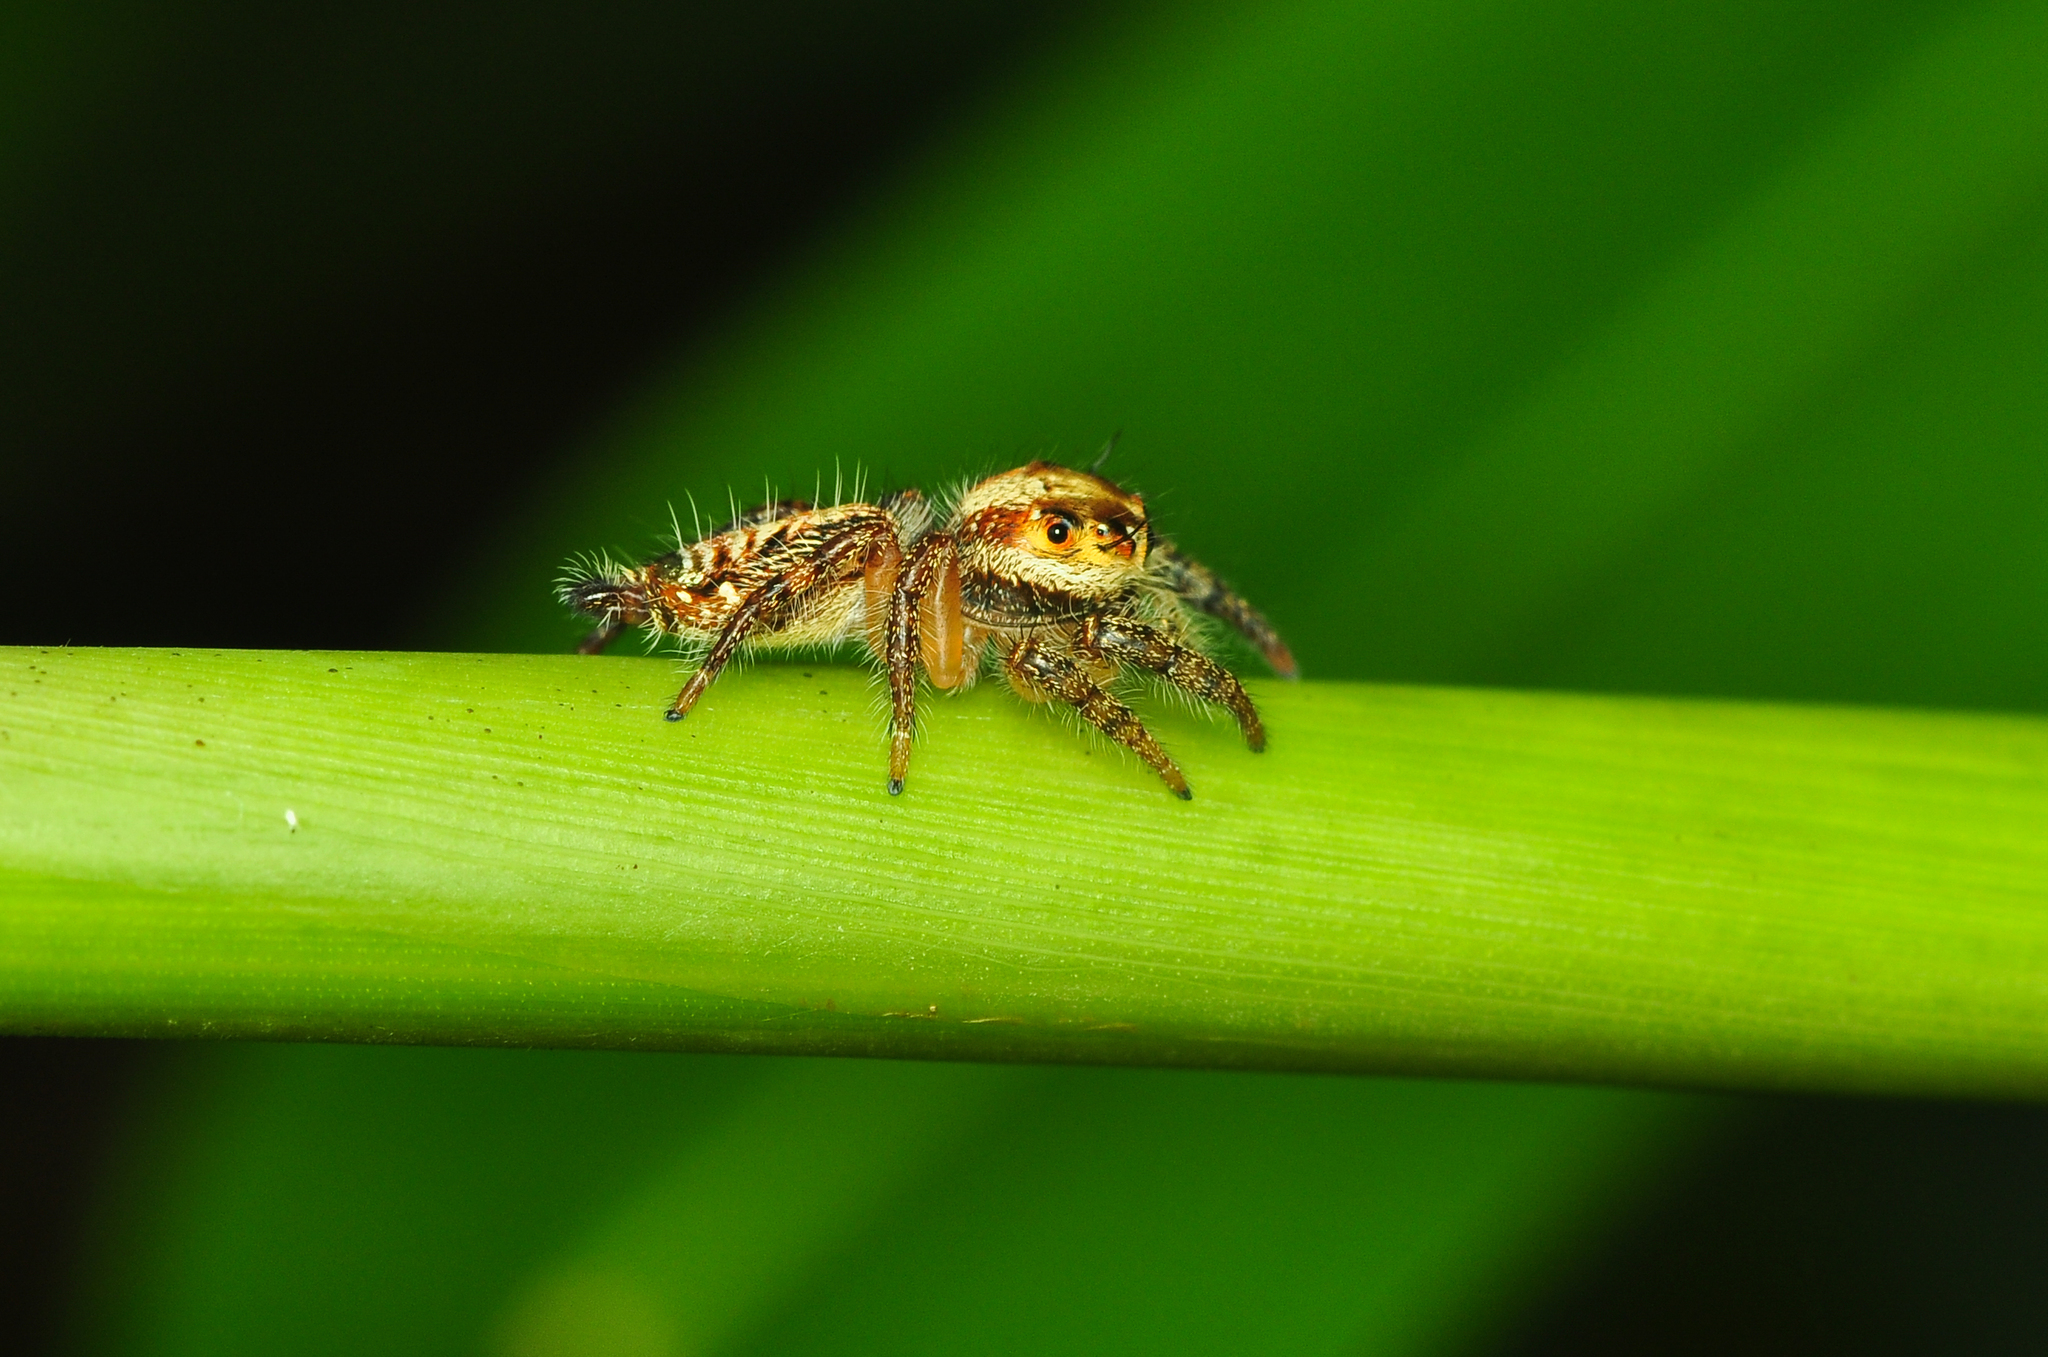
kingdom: Animalia
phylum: Arthropoda
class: Arachnida
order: Araneae
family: Salticidae
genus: Hyllus
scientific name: Hyllus semicupreus
